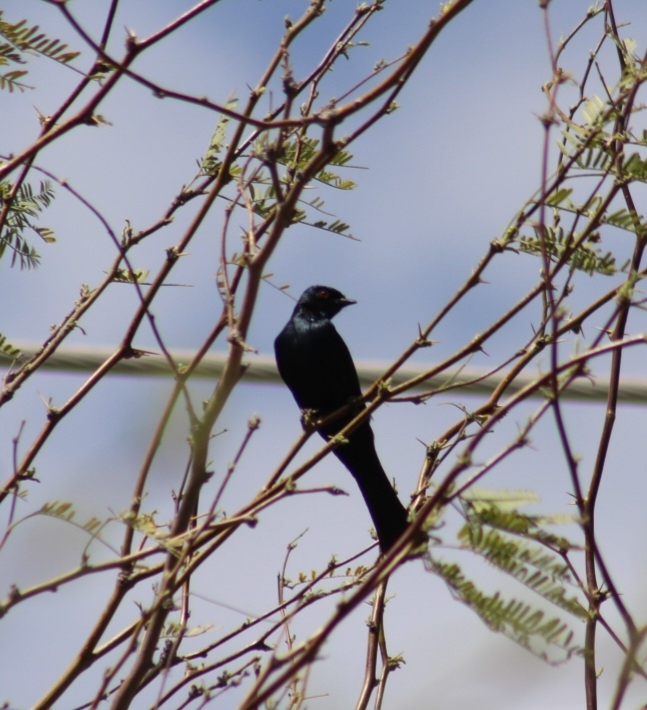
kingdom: Animalia
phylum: Chordata
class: Aves
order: Passeriformes
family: Ptilogonatidae
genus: Phainopepla
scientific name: Phainopepla nitens
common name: Phainopepla
